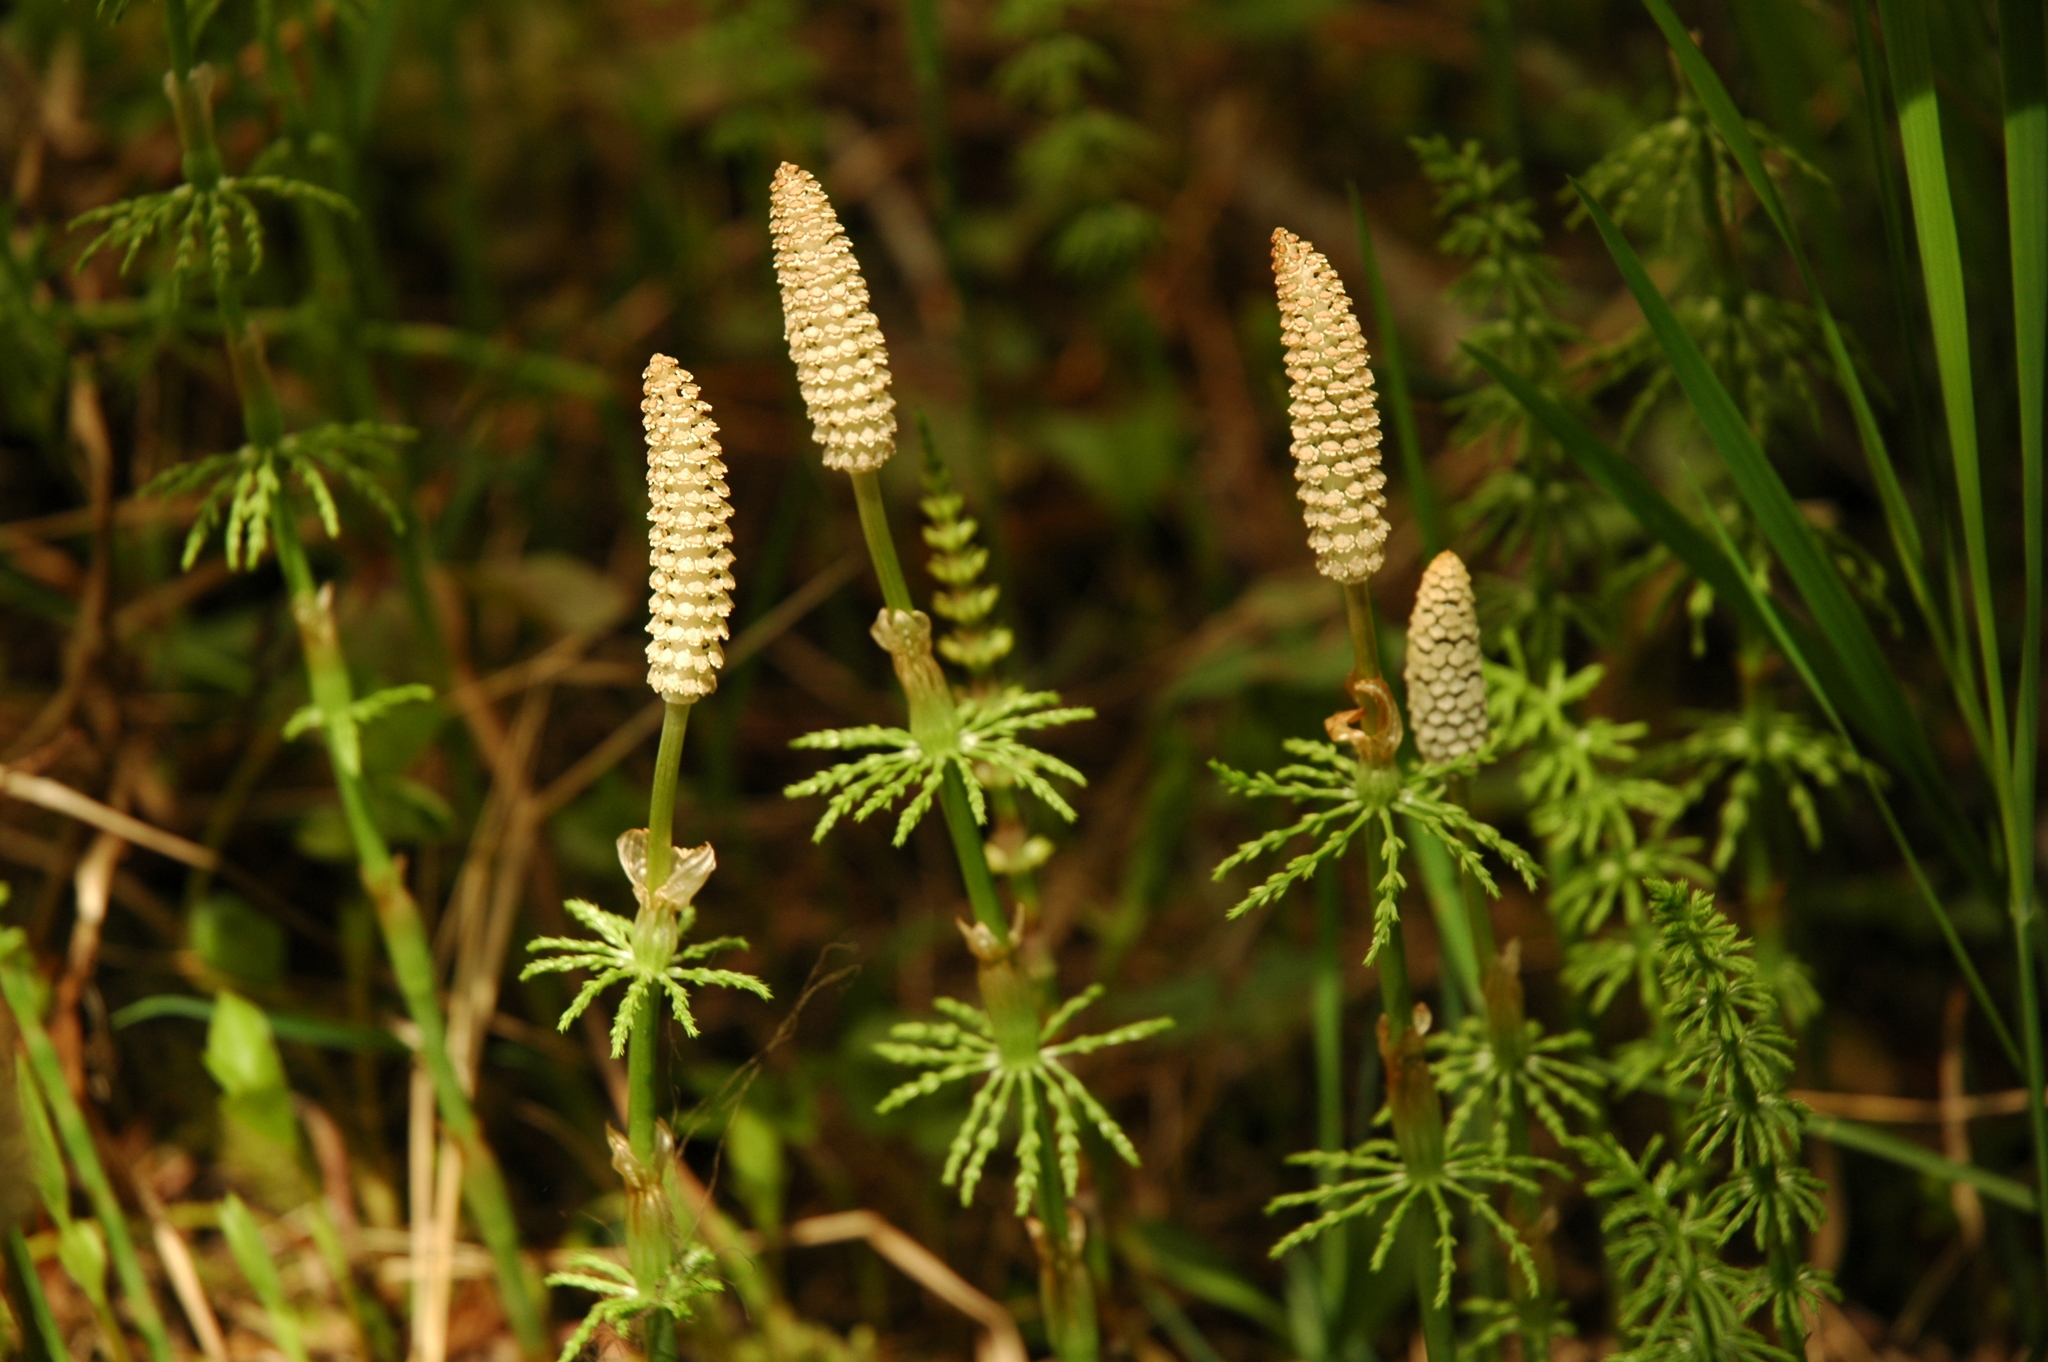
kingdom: Plantae
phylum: Tracheophyta
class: Polypodiopsida
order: Equisetales
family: Equisetaceae
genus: Equisetum
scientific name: Equisetum sylvaticum
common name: Wood horsetail
